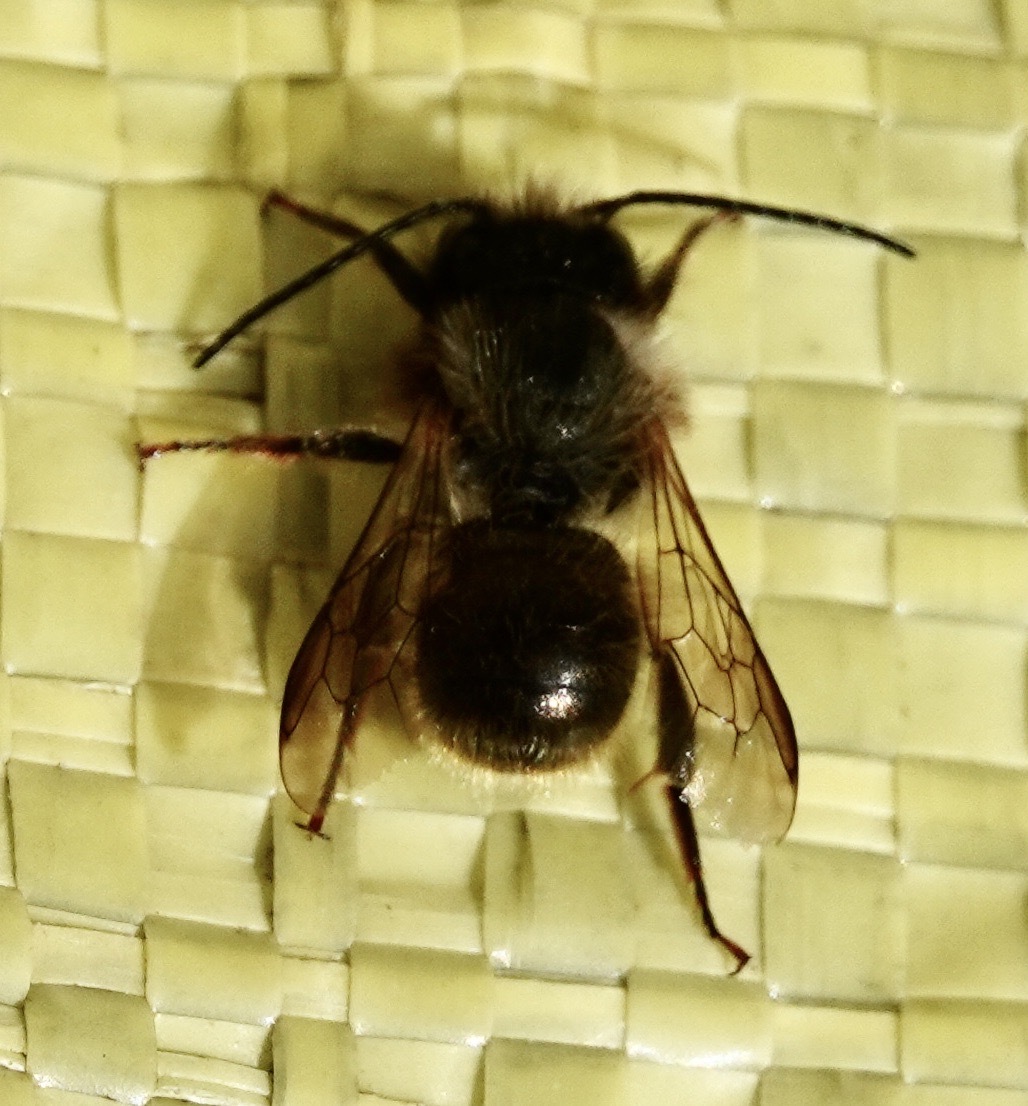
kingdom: Animalia
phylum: Arthropoda
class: Insecta
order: Hymenoptera
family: Megachilidae
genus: Osmia
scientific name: Osmia bicornis
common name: Red mason bee
